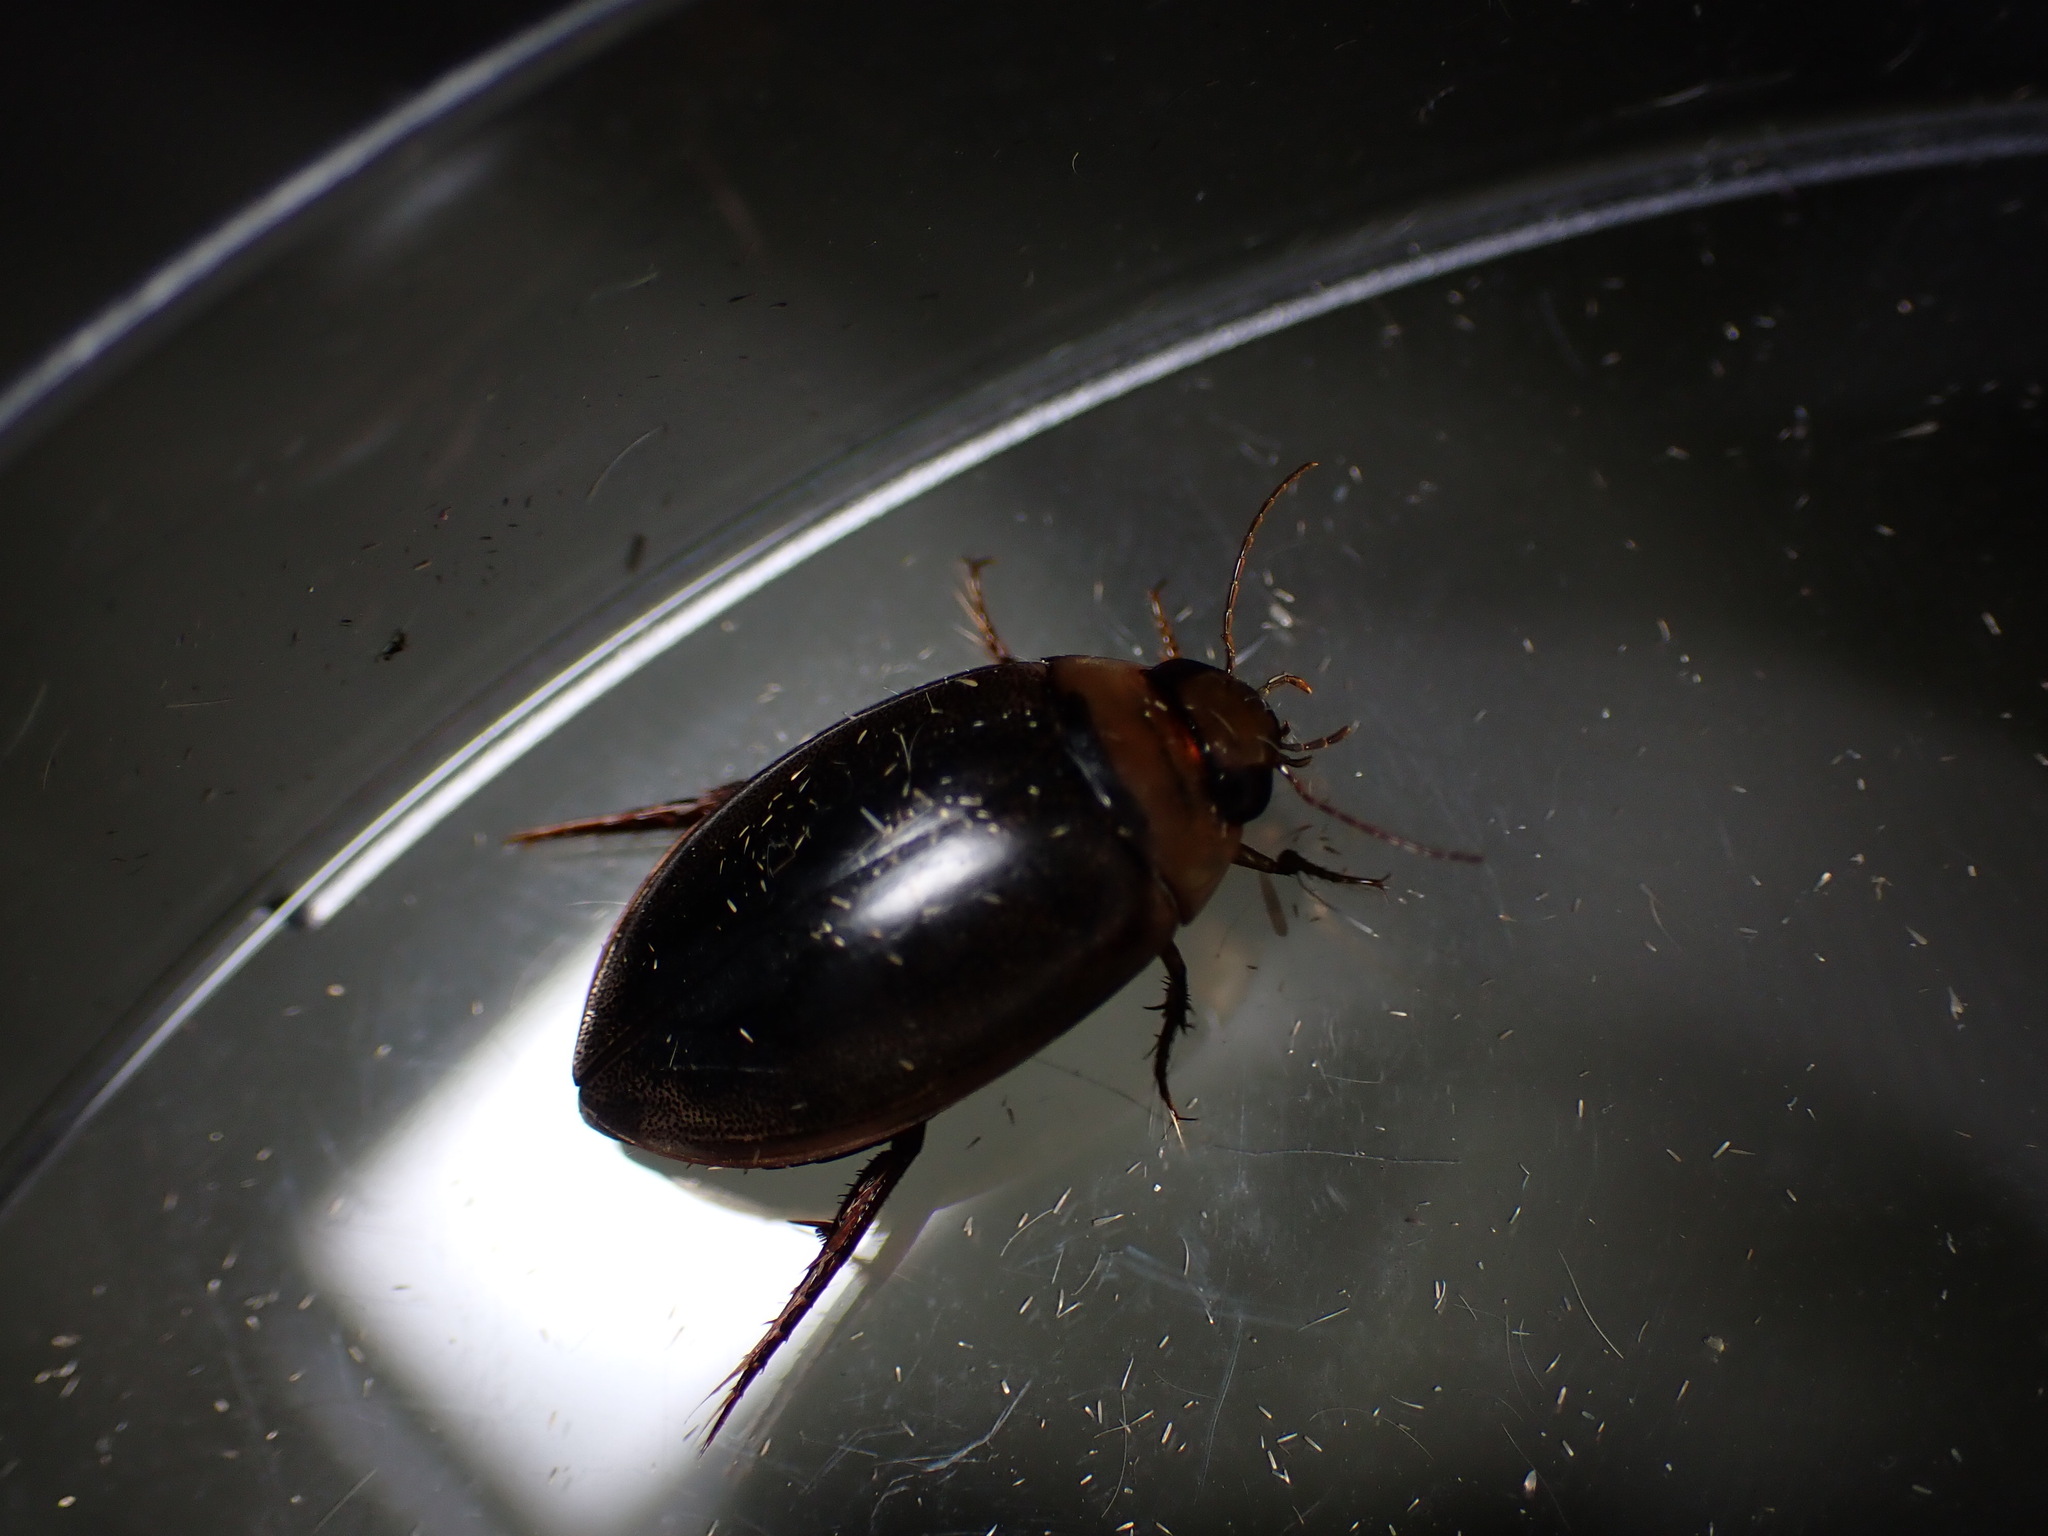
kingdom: Animalia
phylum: Arthropoda
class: Insecta
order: Coleoptera
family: Dytiscidae
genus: Hydaticus
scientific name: Hydaticus leander
